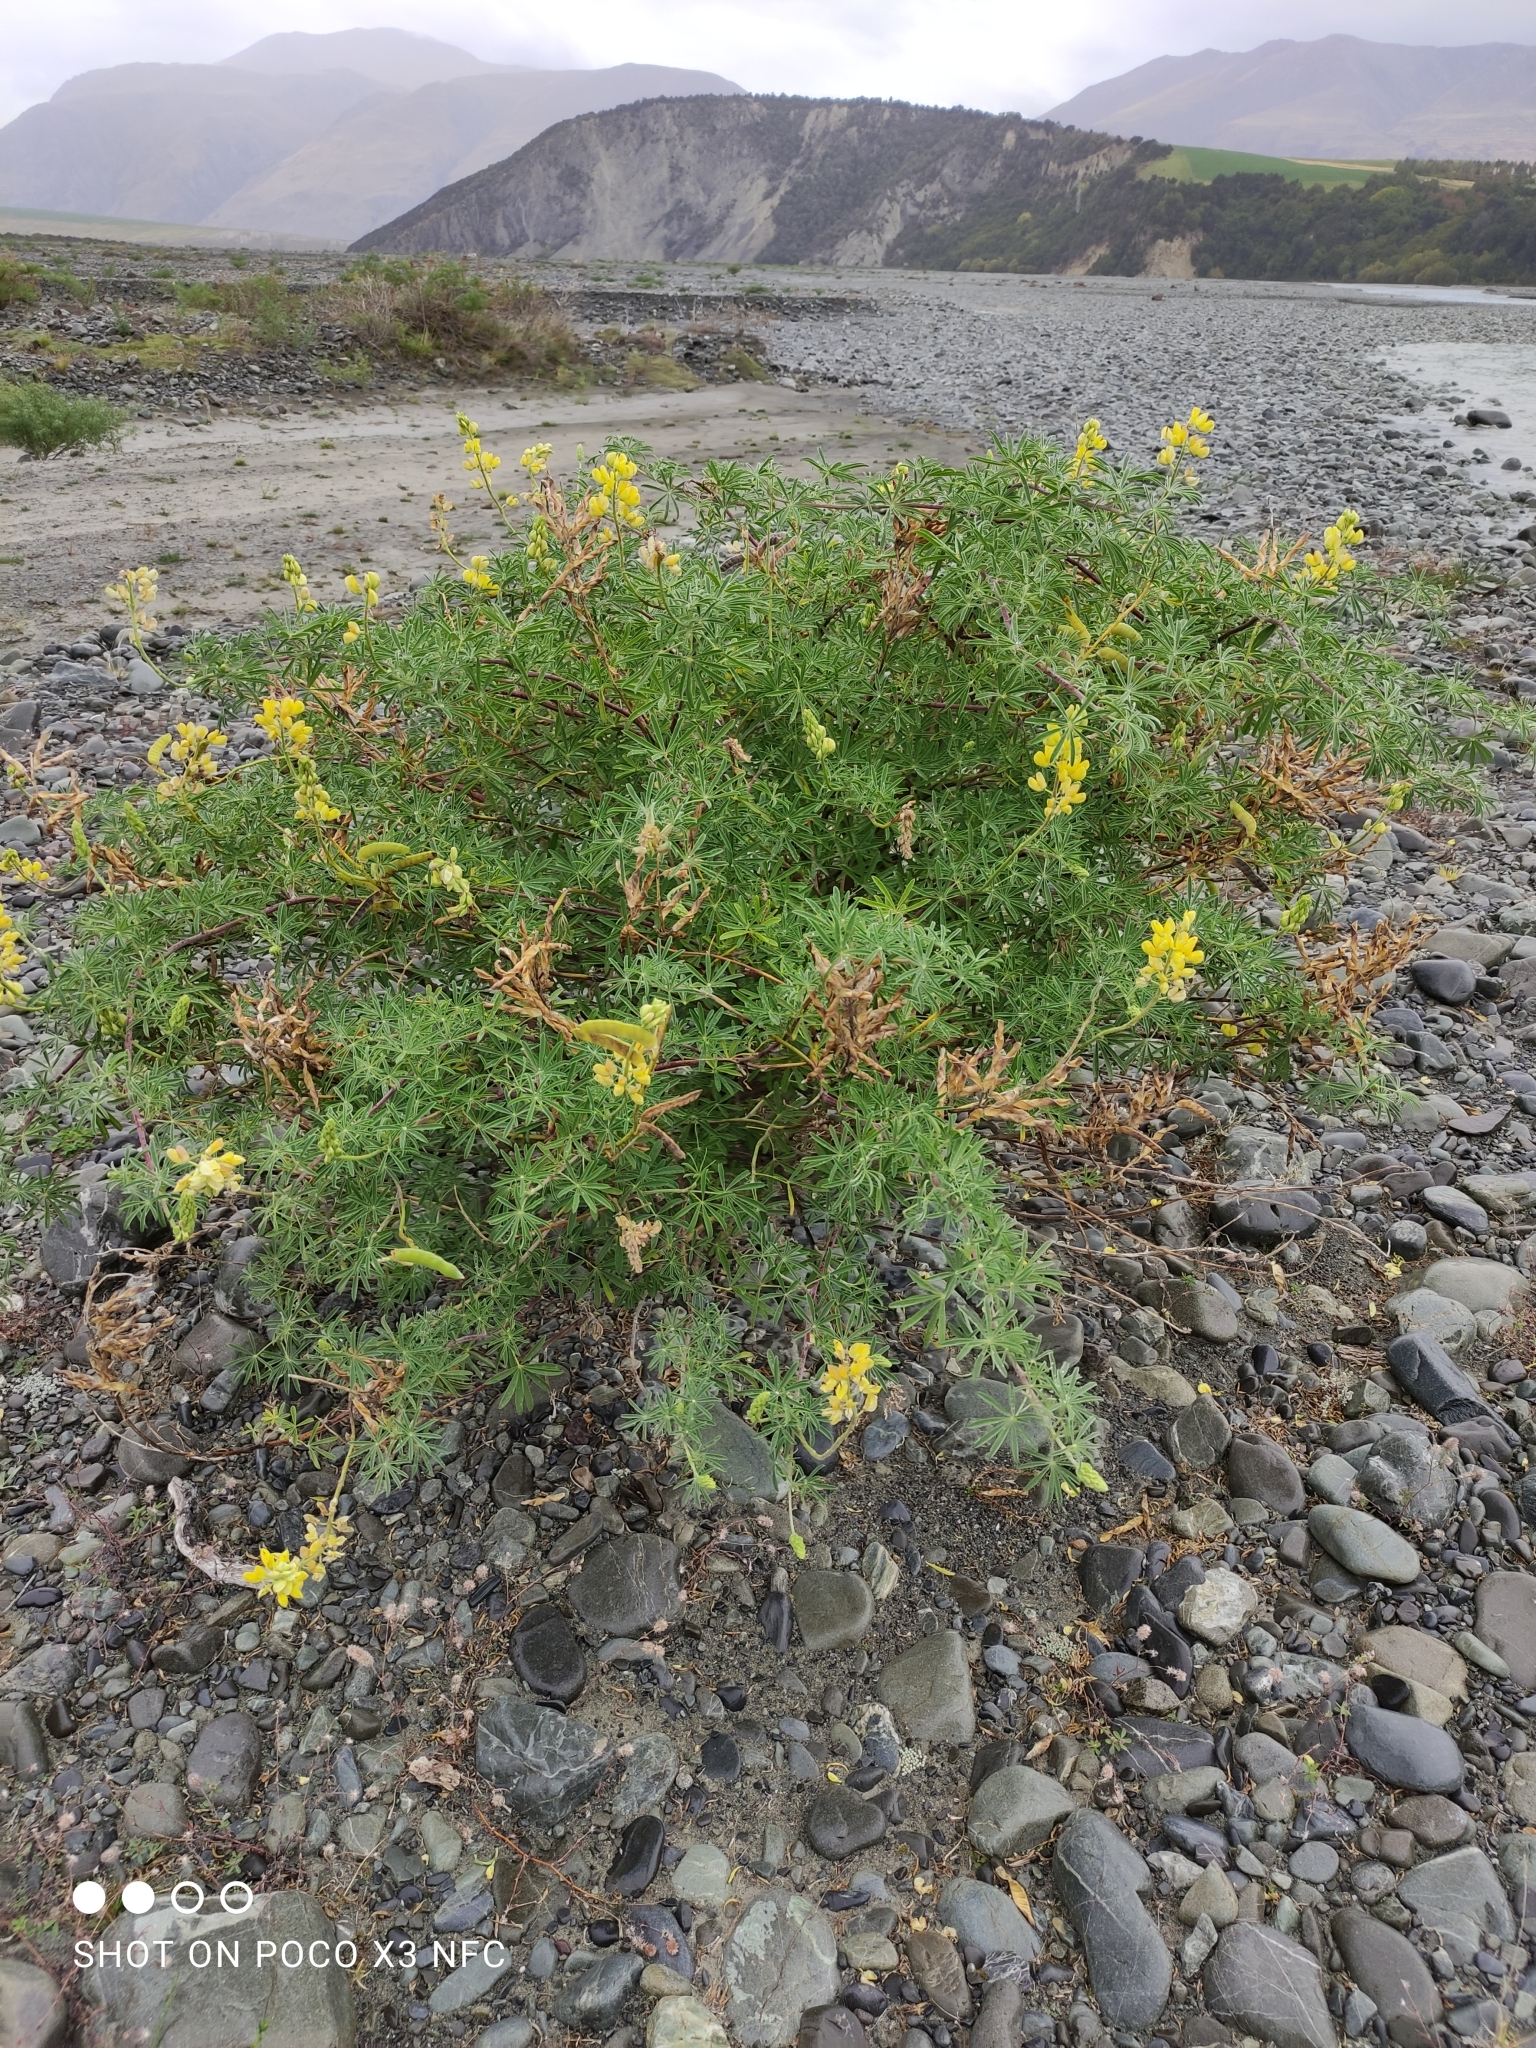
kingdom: Plantae
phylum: Tracheophyta
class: Magnoliopsida
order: Fabales
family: Fabaceae
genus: Lupinus
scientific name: Lupinus arboreus
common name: Yellow bush lupine
